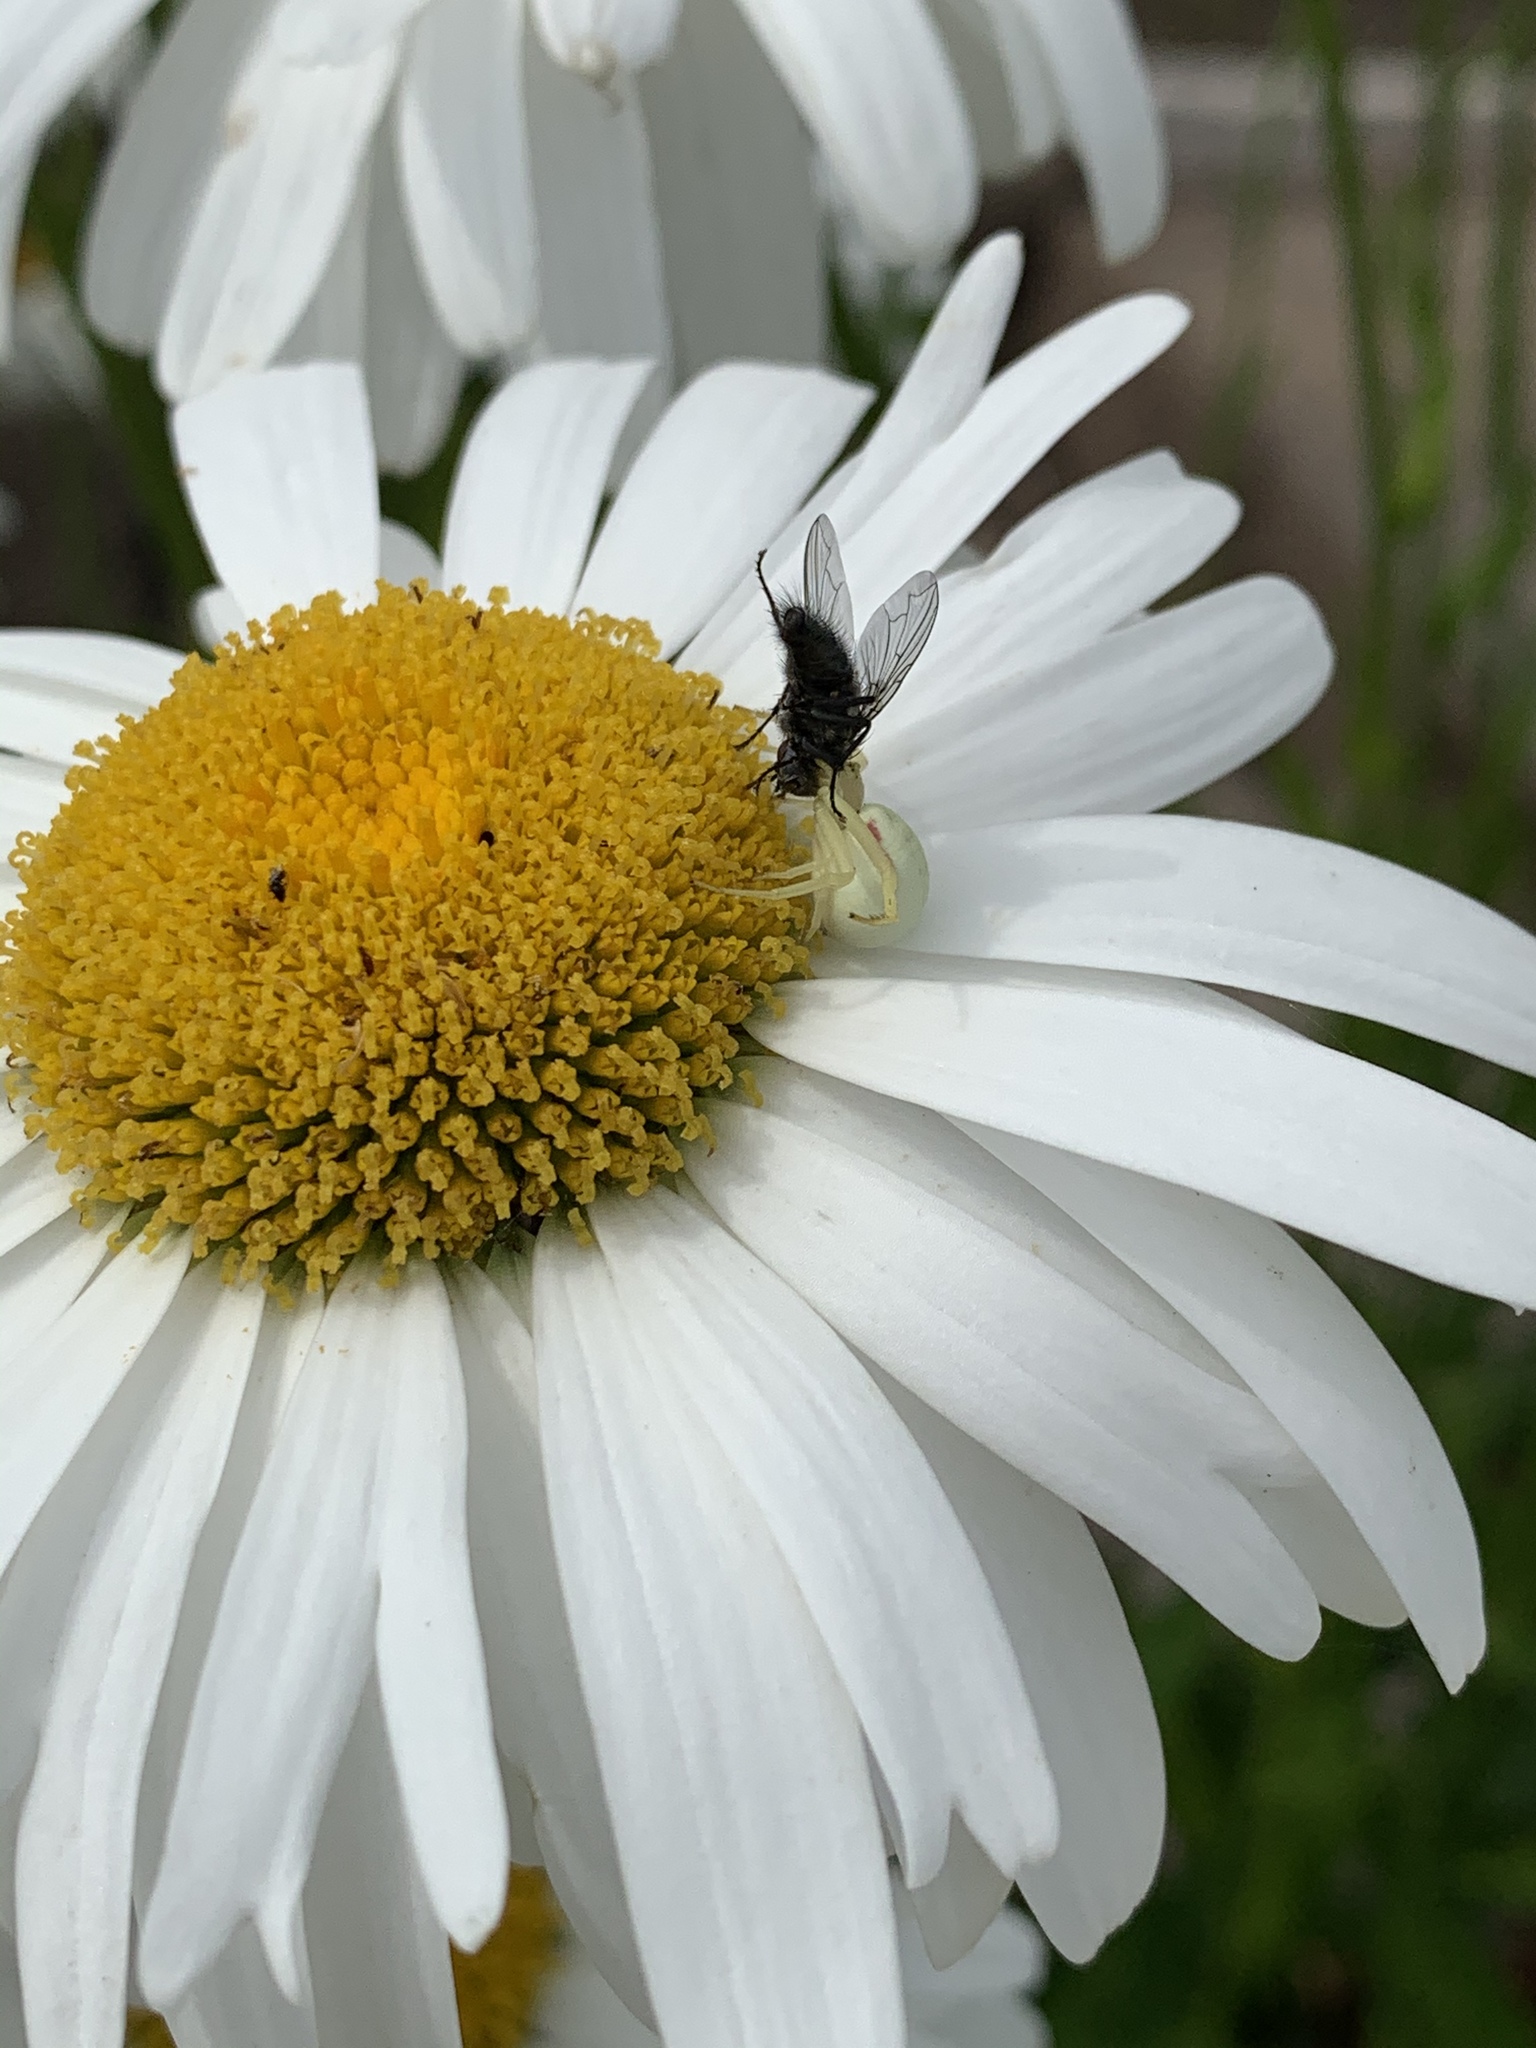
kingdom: Animalia
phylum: Arthropoda
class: Arachnida
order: Araneae
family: Thomisidae
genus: Misumena
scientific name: Misumena vatia
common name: Goldenrod crab spider
